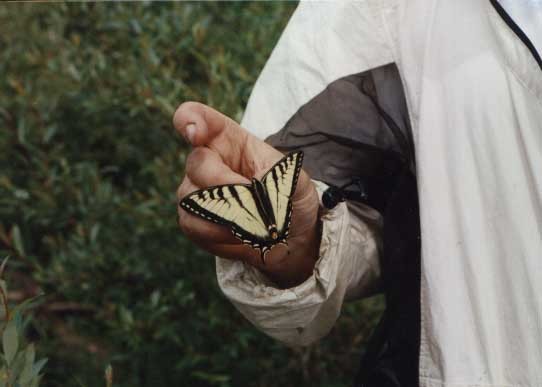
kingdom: Animalia
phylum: Arthropoda
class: Insecta
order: Lepidoptera
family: Papilionidae
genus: Papilio
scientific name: Papilio canadensis
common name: Canadian tiger swallowtail
